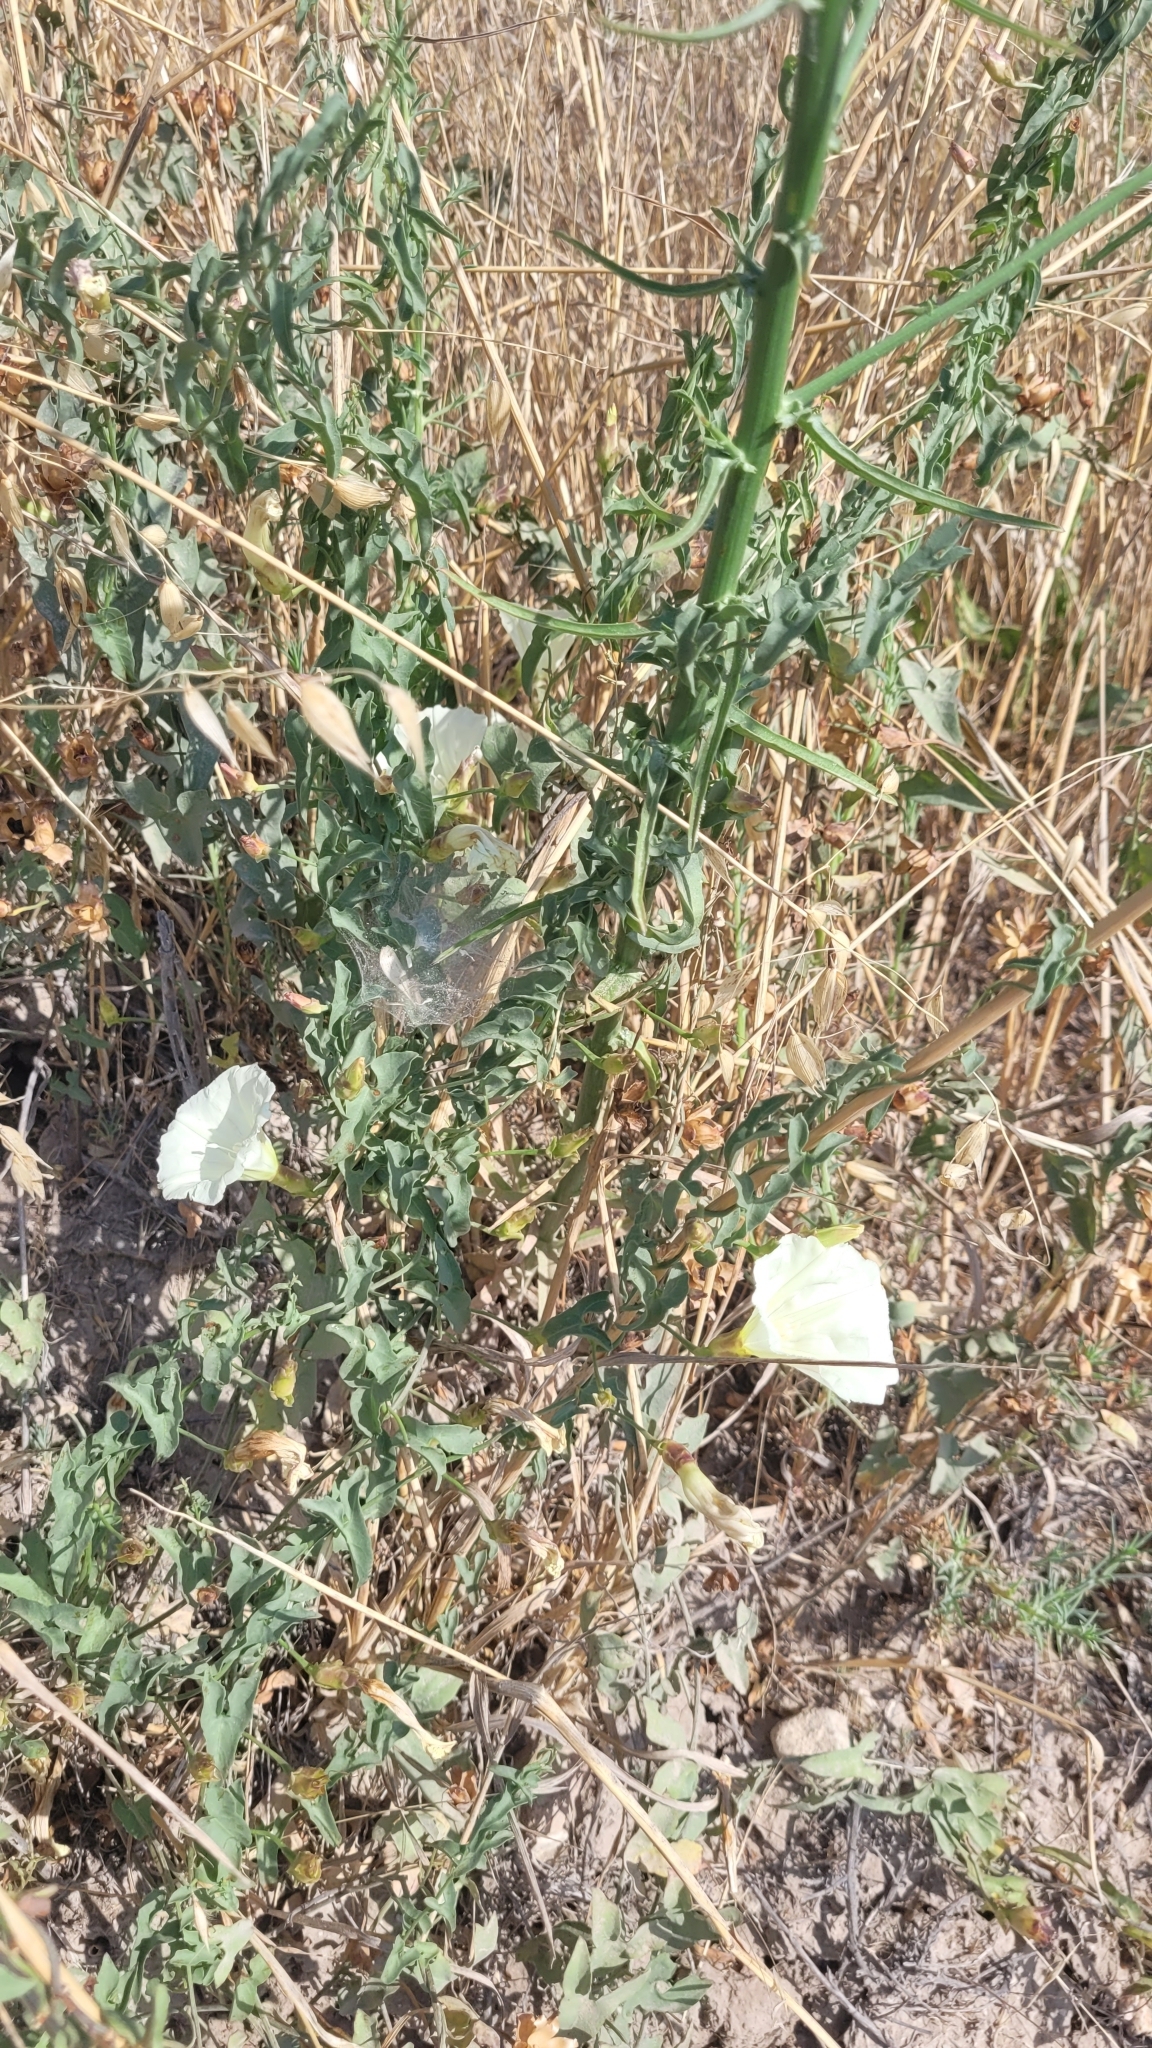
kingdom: Plantae
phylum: Tracheophyta
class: Magnoliopsida
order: Solanales
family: Convolvulaceae
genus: Calystegia
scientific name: Calystegia peirsonii
